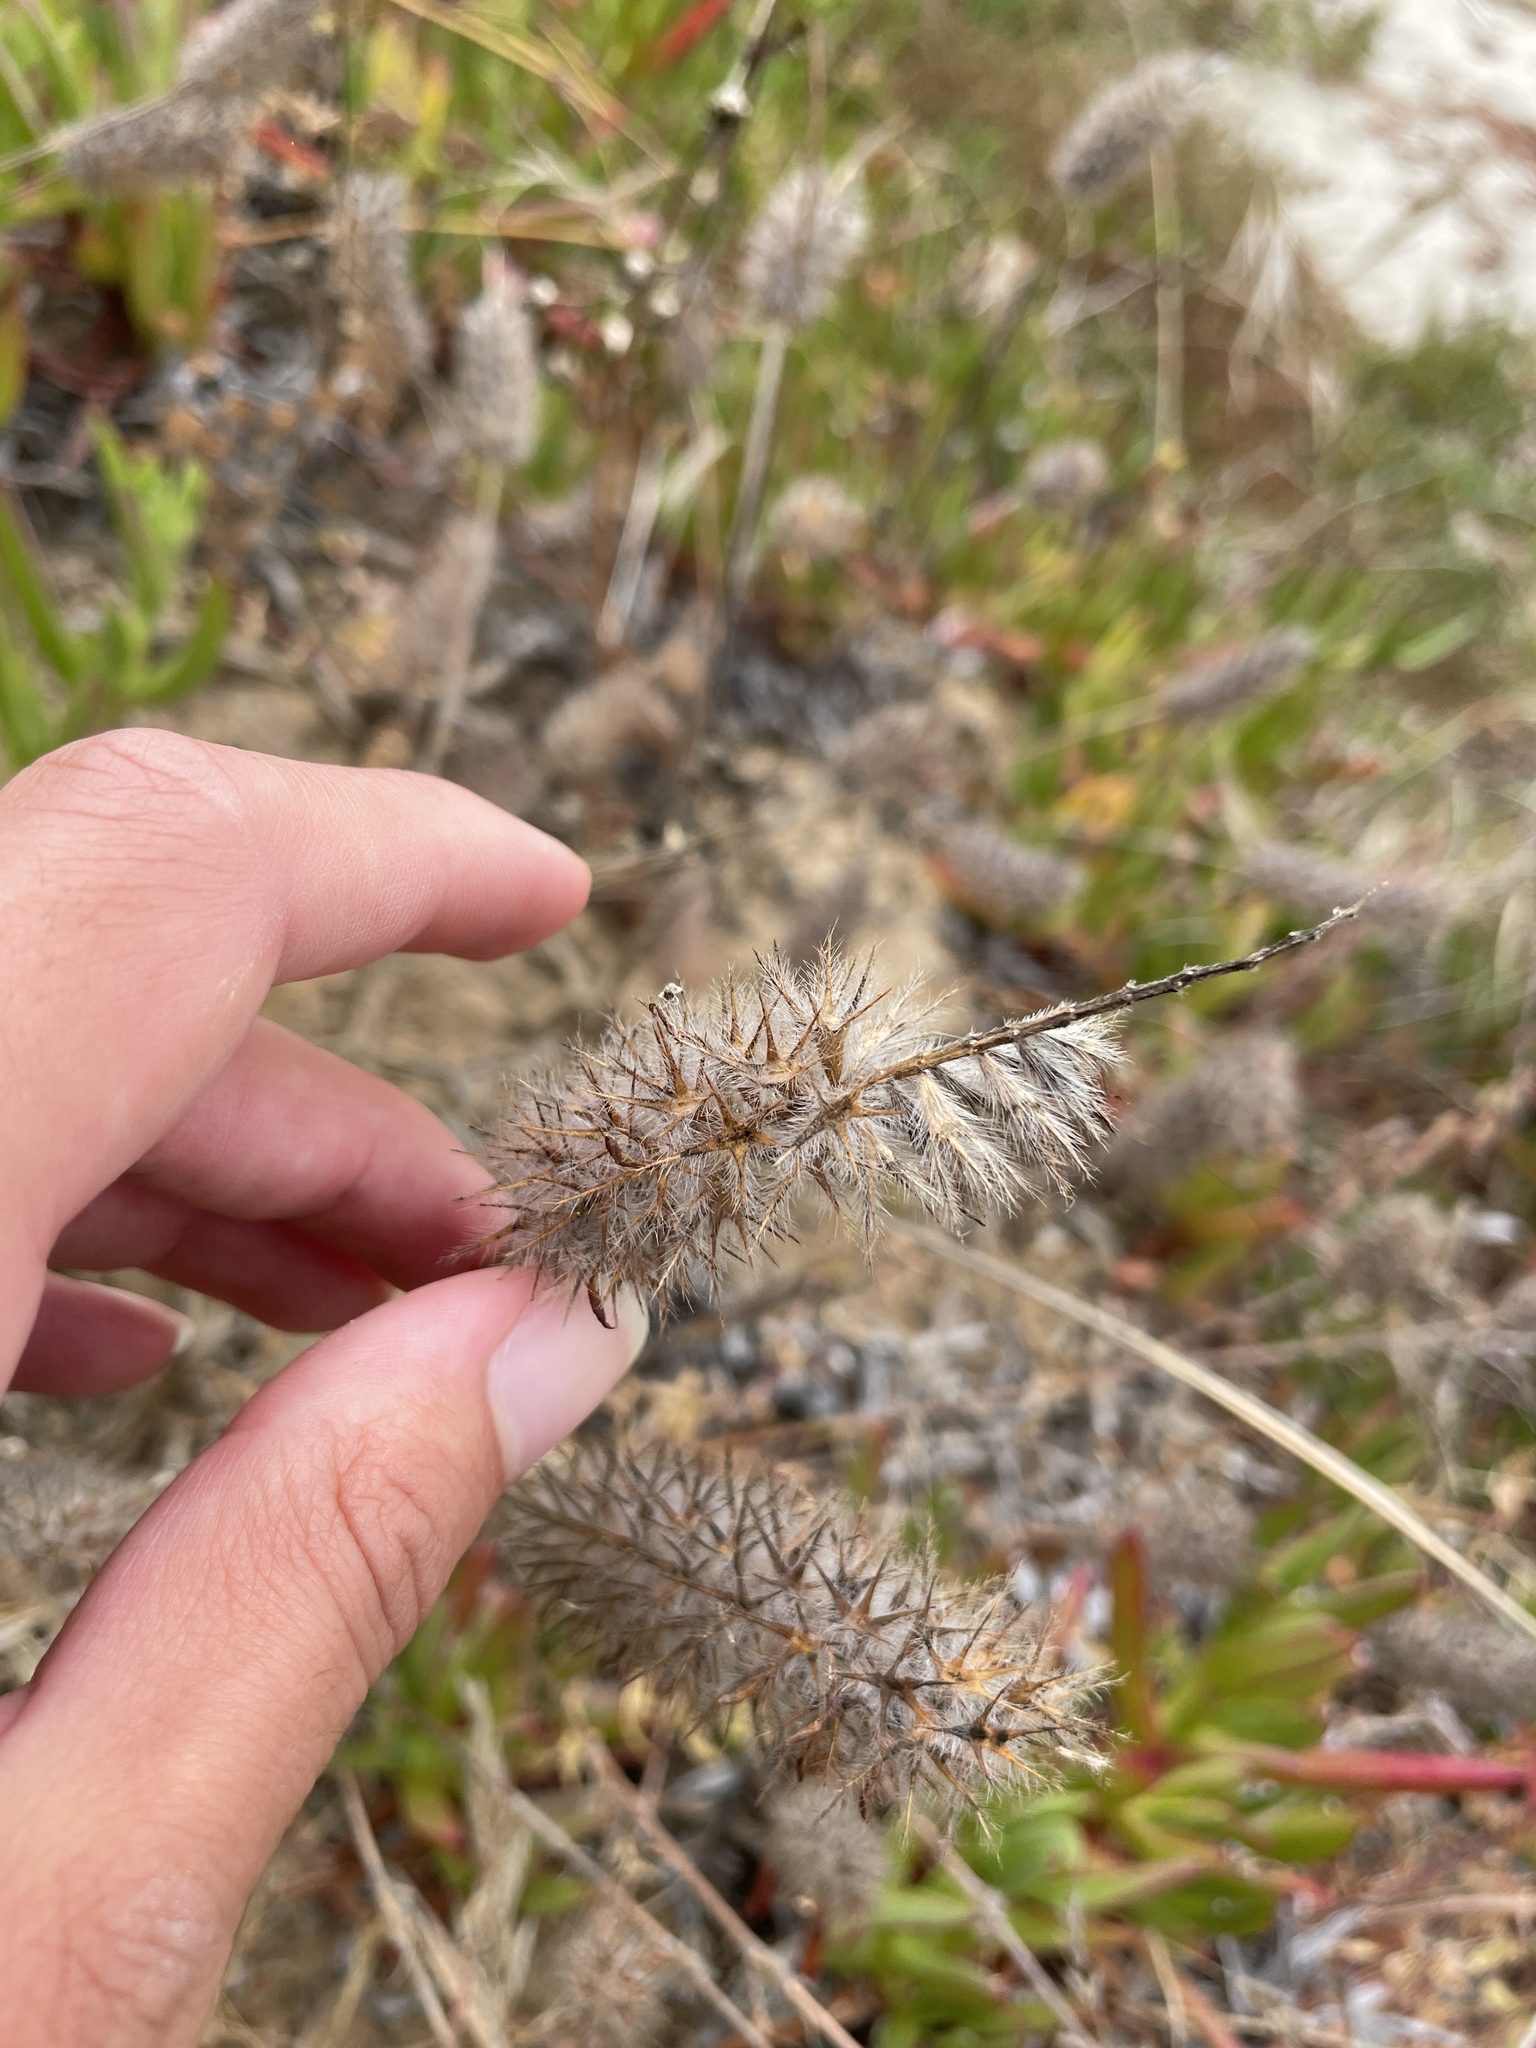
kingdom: Plantae
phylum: Tracheophyta
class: Magnoliopsida
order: Fabales
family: Fabaceae
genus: Trifolium
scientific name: Trifolium angustifolium
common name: Narrow clover
